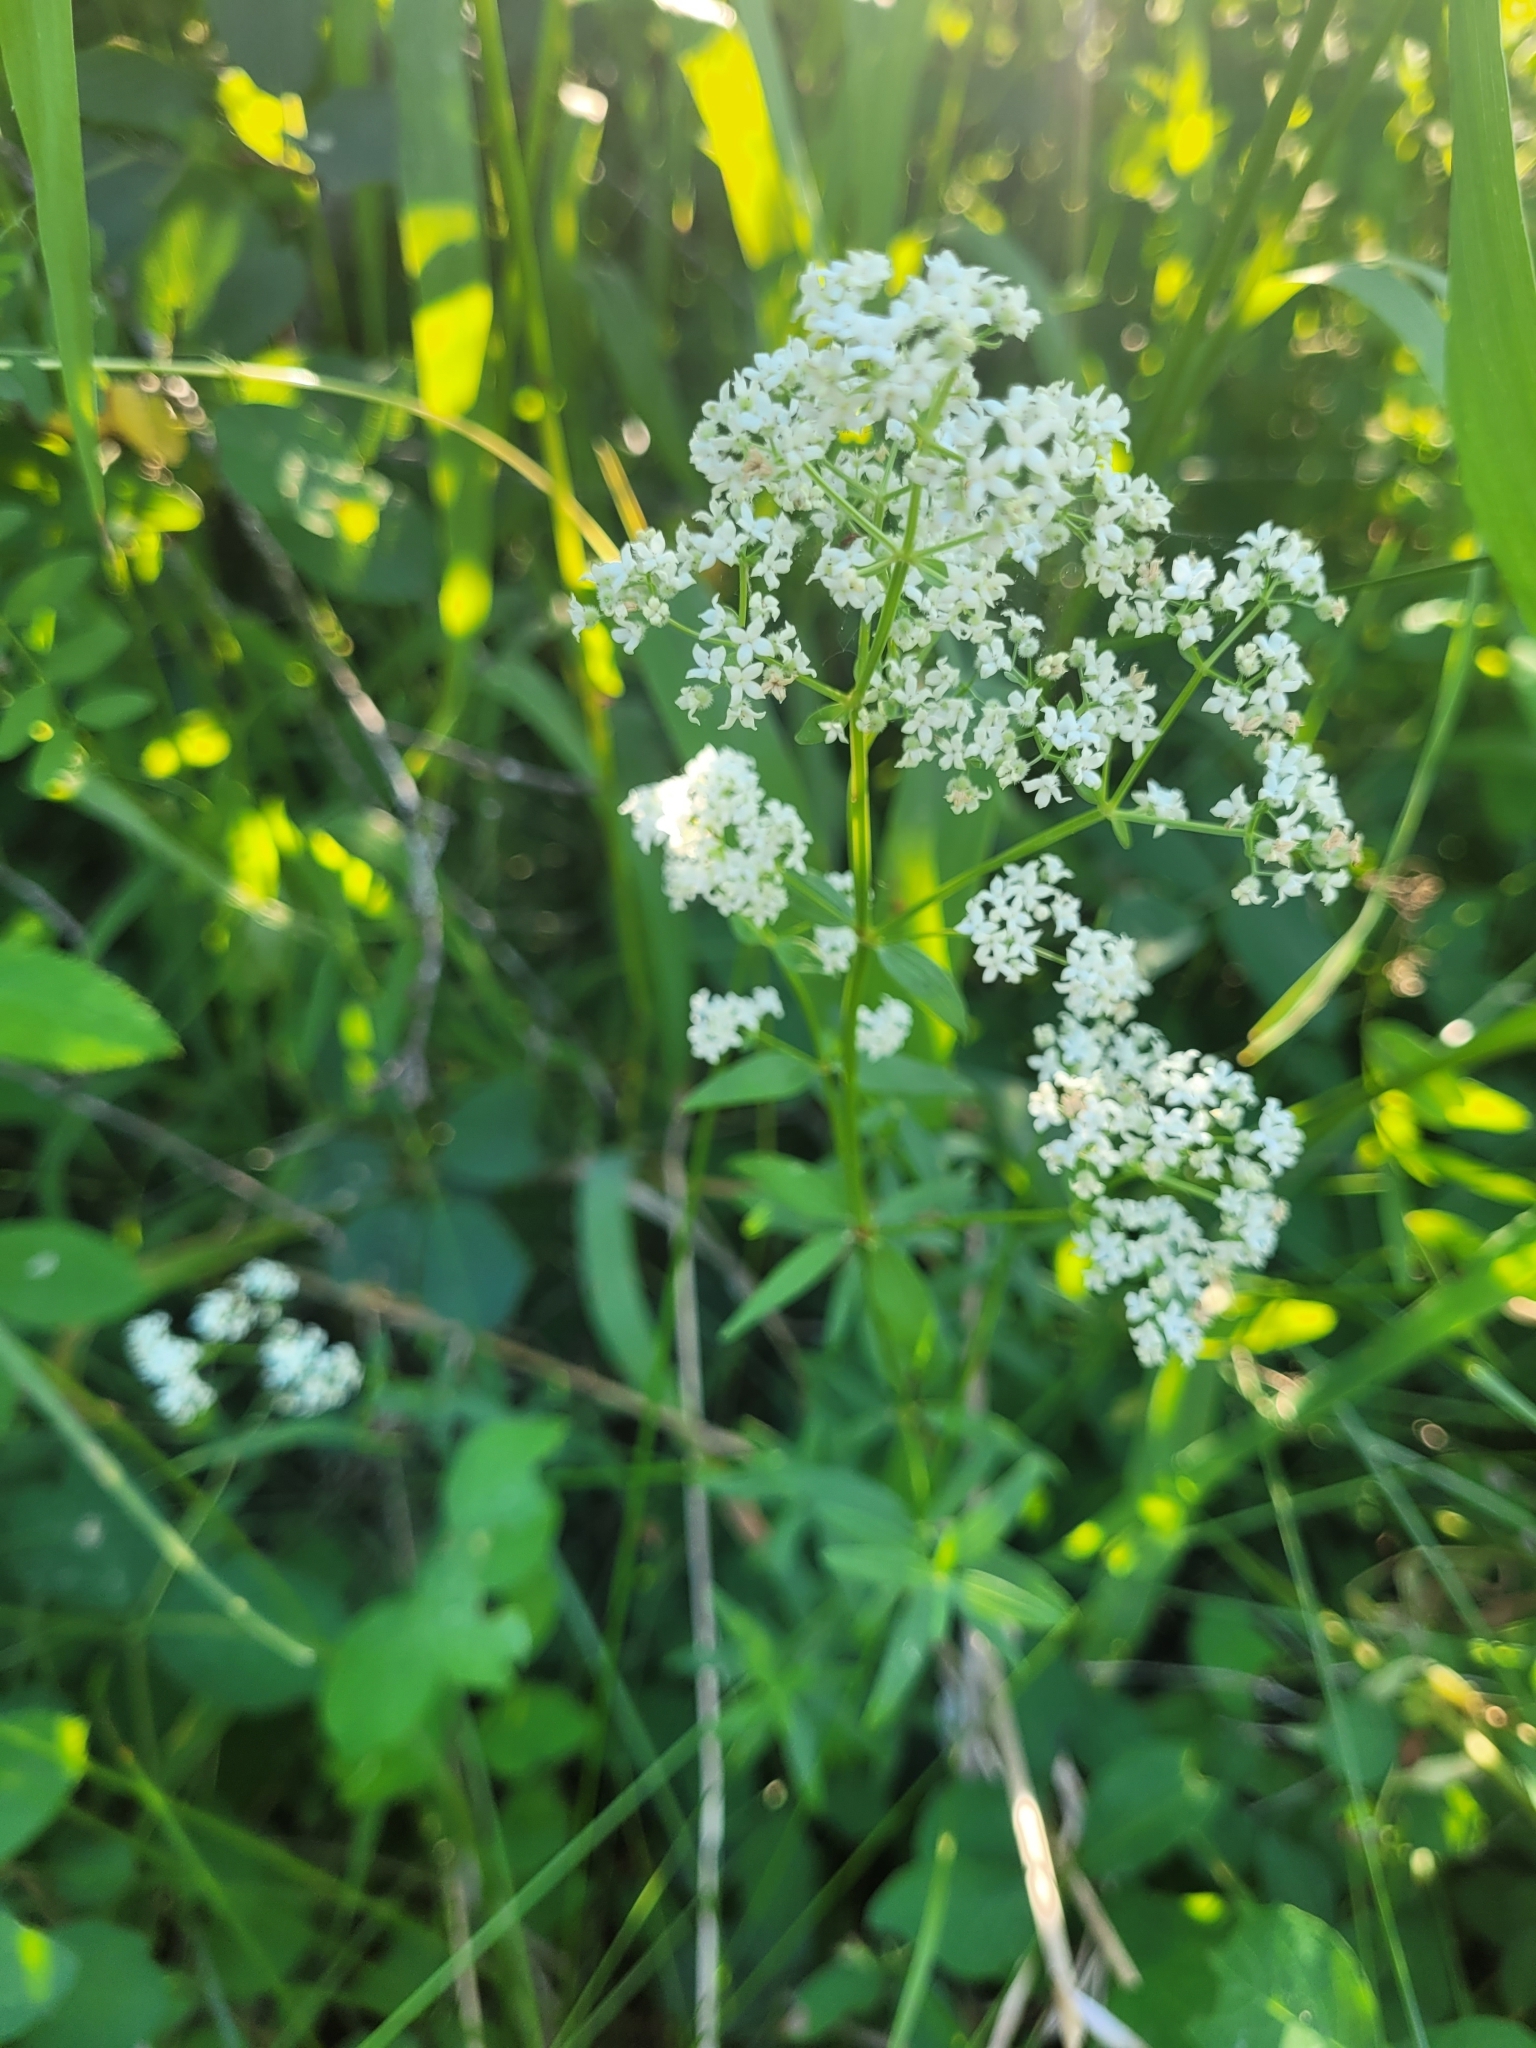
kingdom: Plantae
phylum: Tracheophyta
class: Magnoliopsida
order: Gentianales
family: Rubiaceae
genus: Galium
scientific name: Galium boreale
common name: Northern bedstraw
